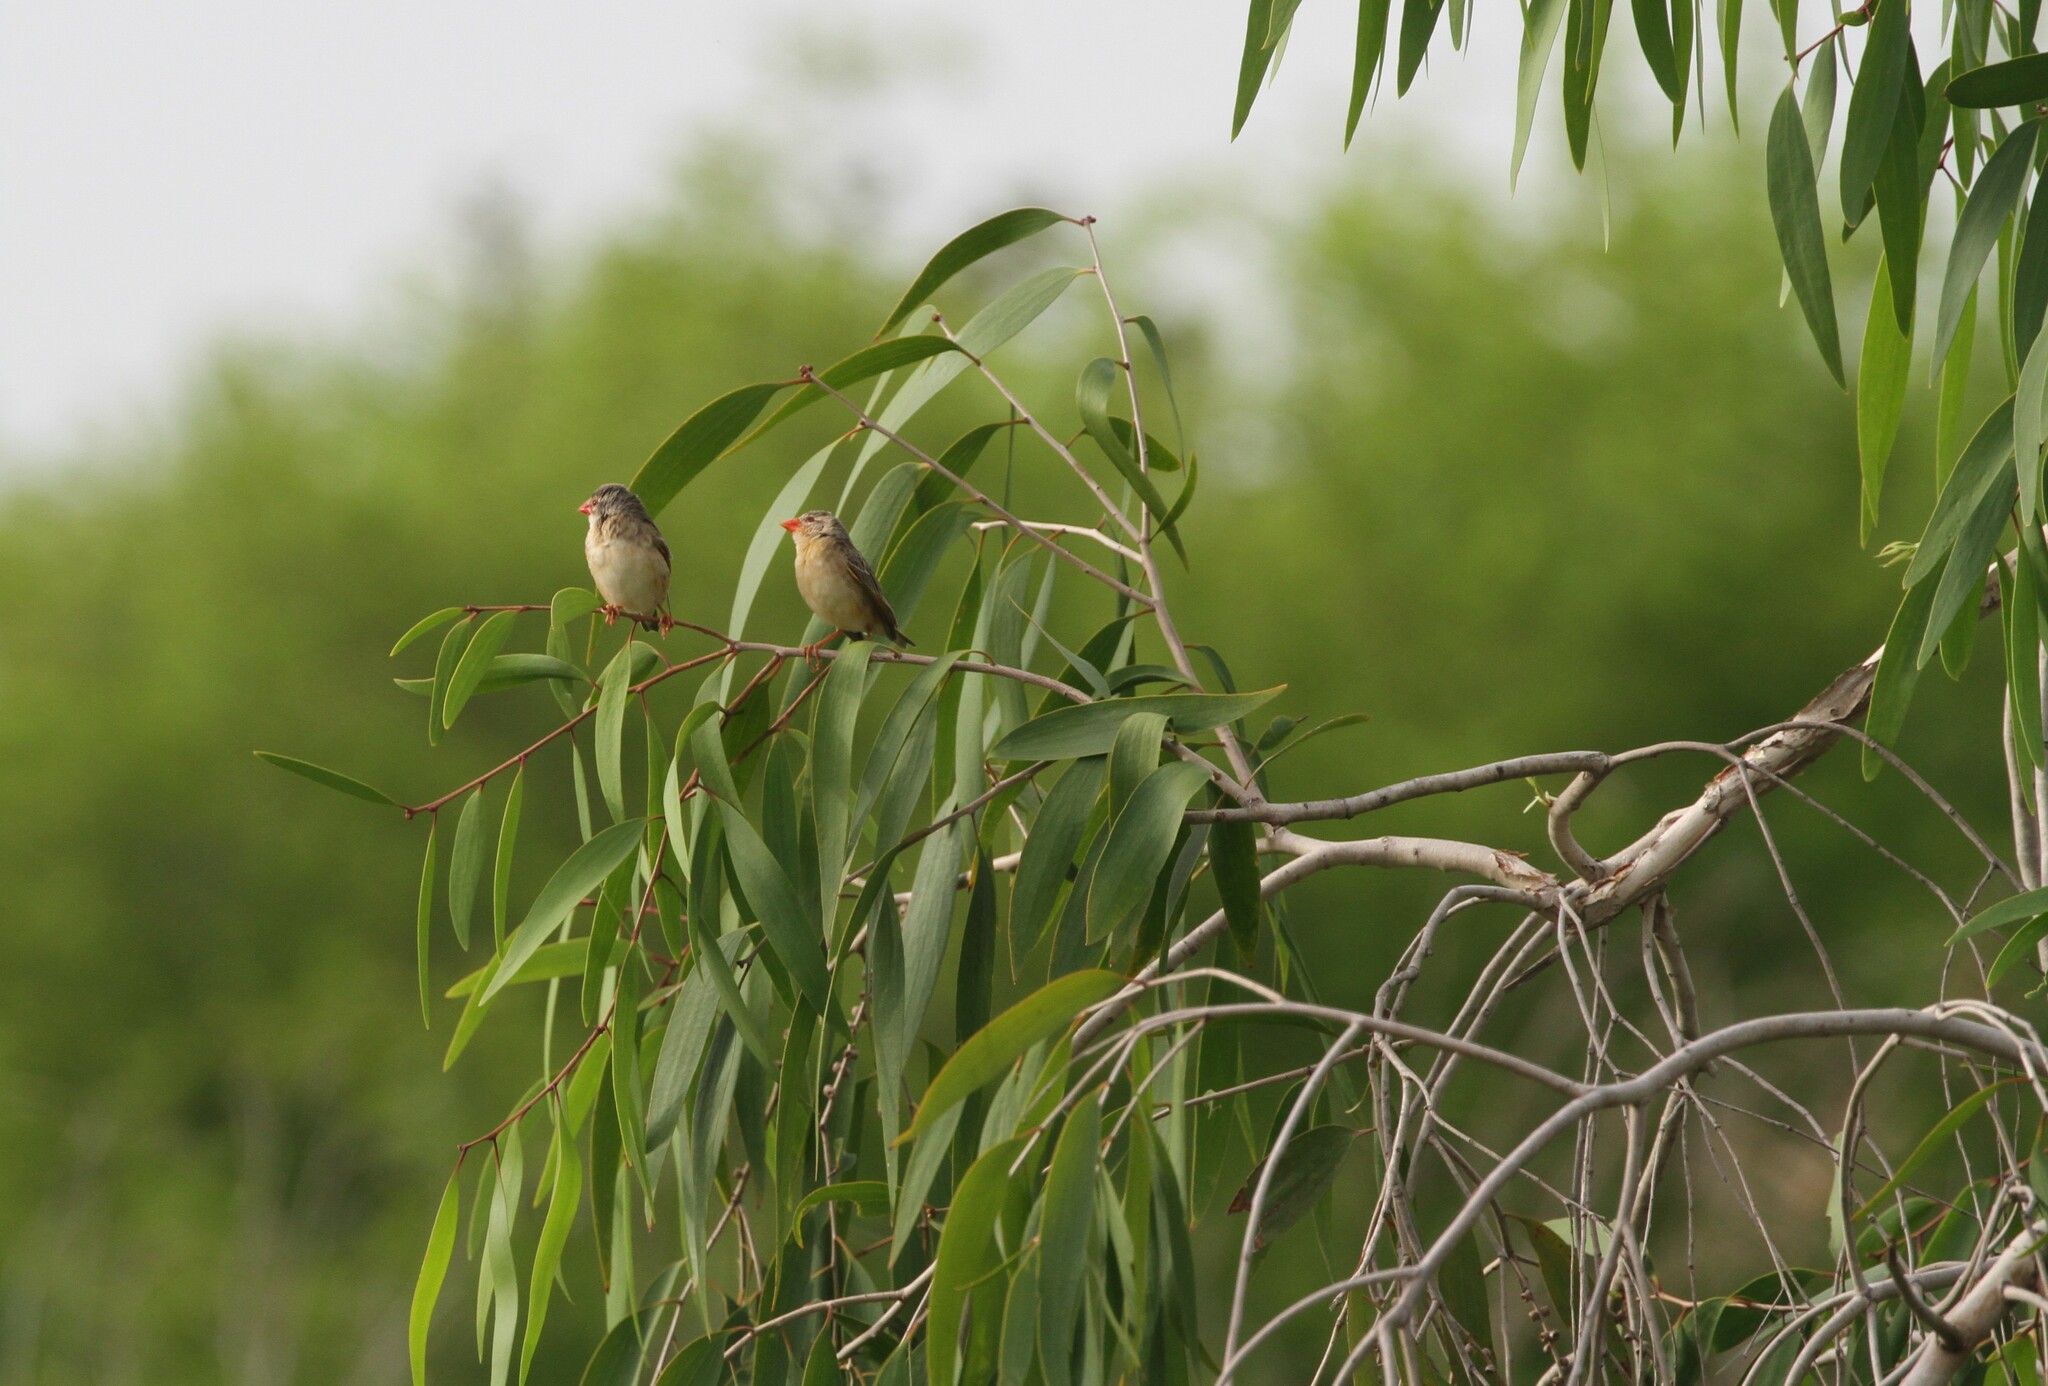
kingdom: Animalia
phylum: Chordata
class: Aves
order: Passeriformes
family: Ploceidae
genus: Quelea
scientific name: Quelea quelea
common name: Red-billed quelea
